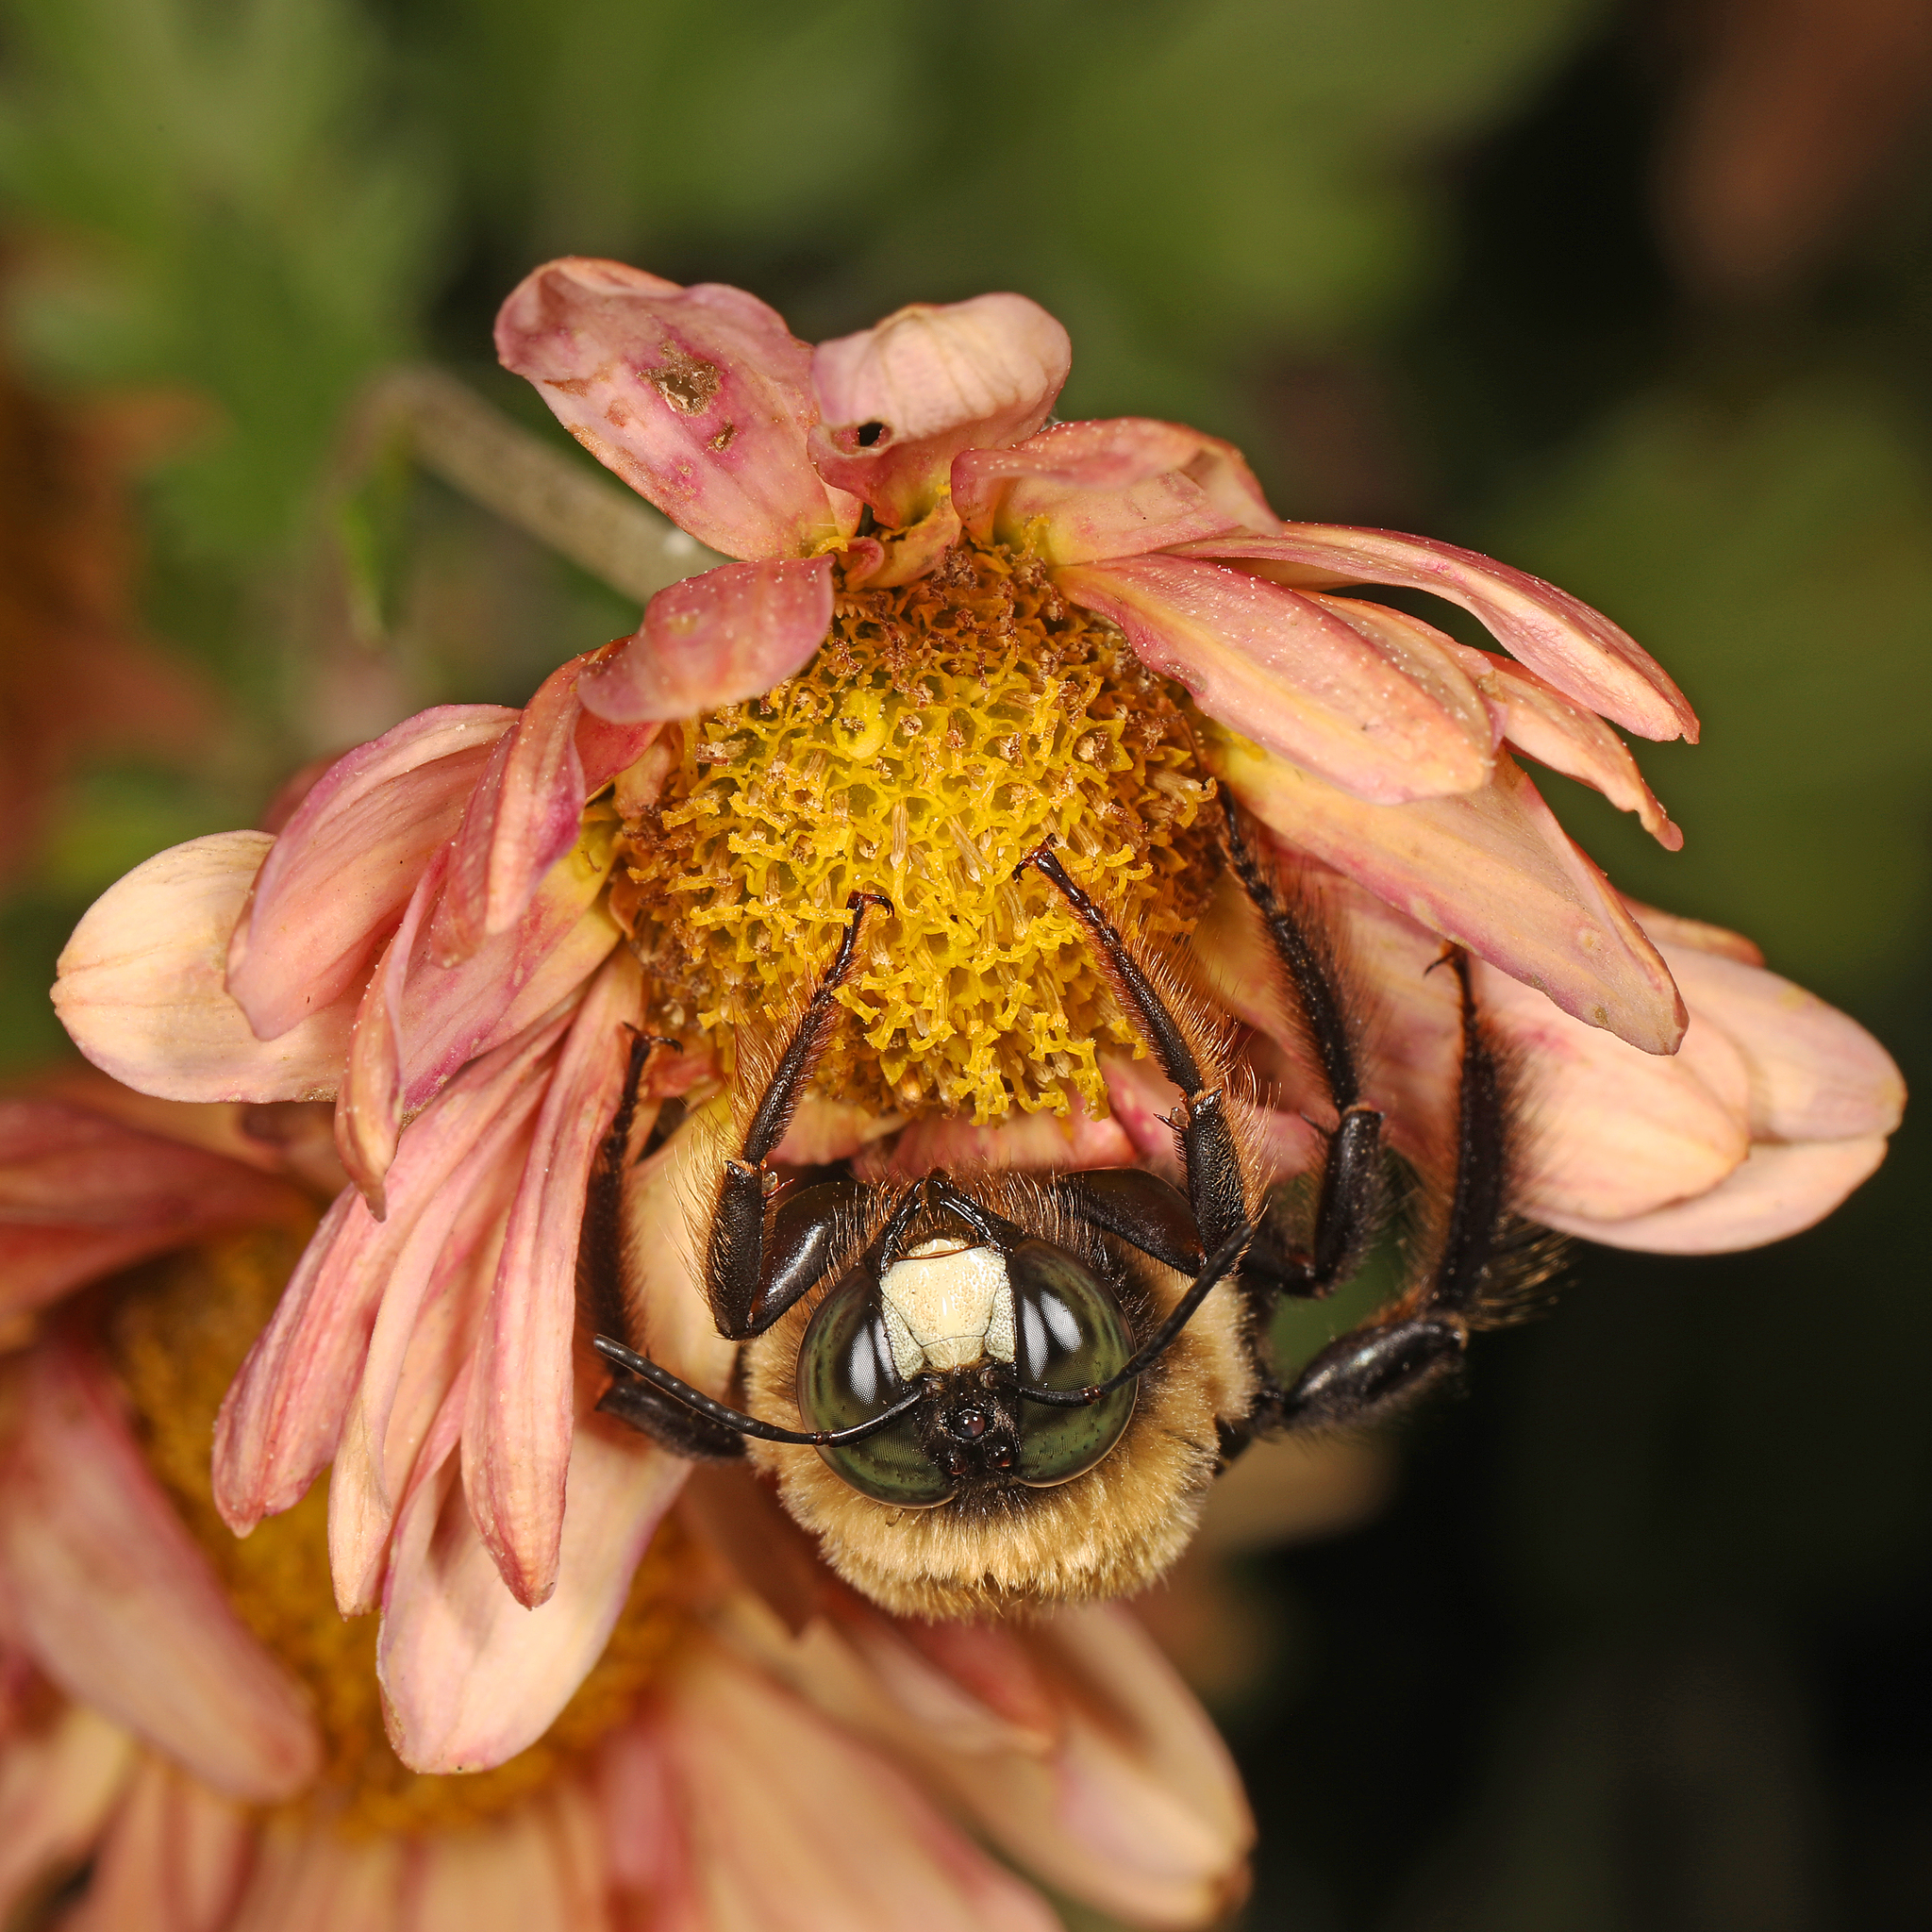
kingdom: Animalia
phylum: Arthropoda
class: Insecta
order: Hymenoptera
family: Apidae
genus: Xylocopa
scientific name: Xylocopa virginica
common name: Carpenter bee
